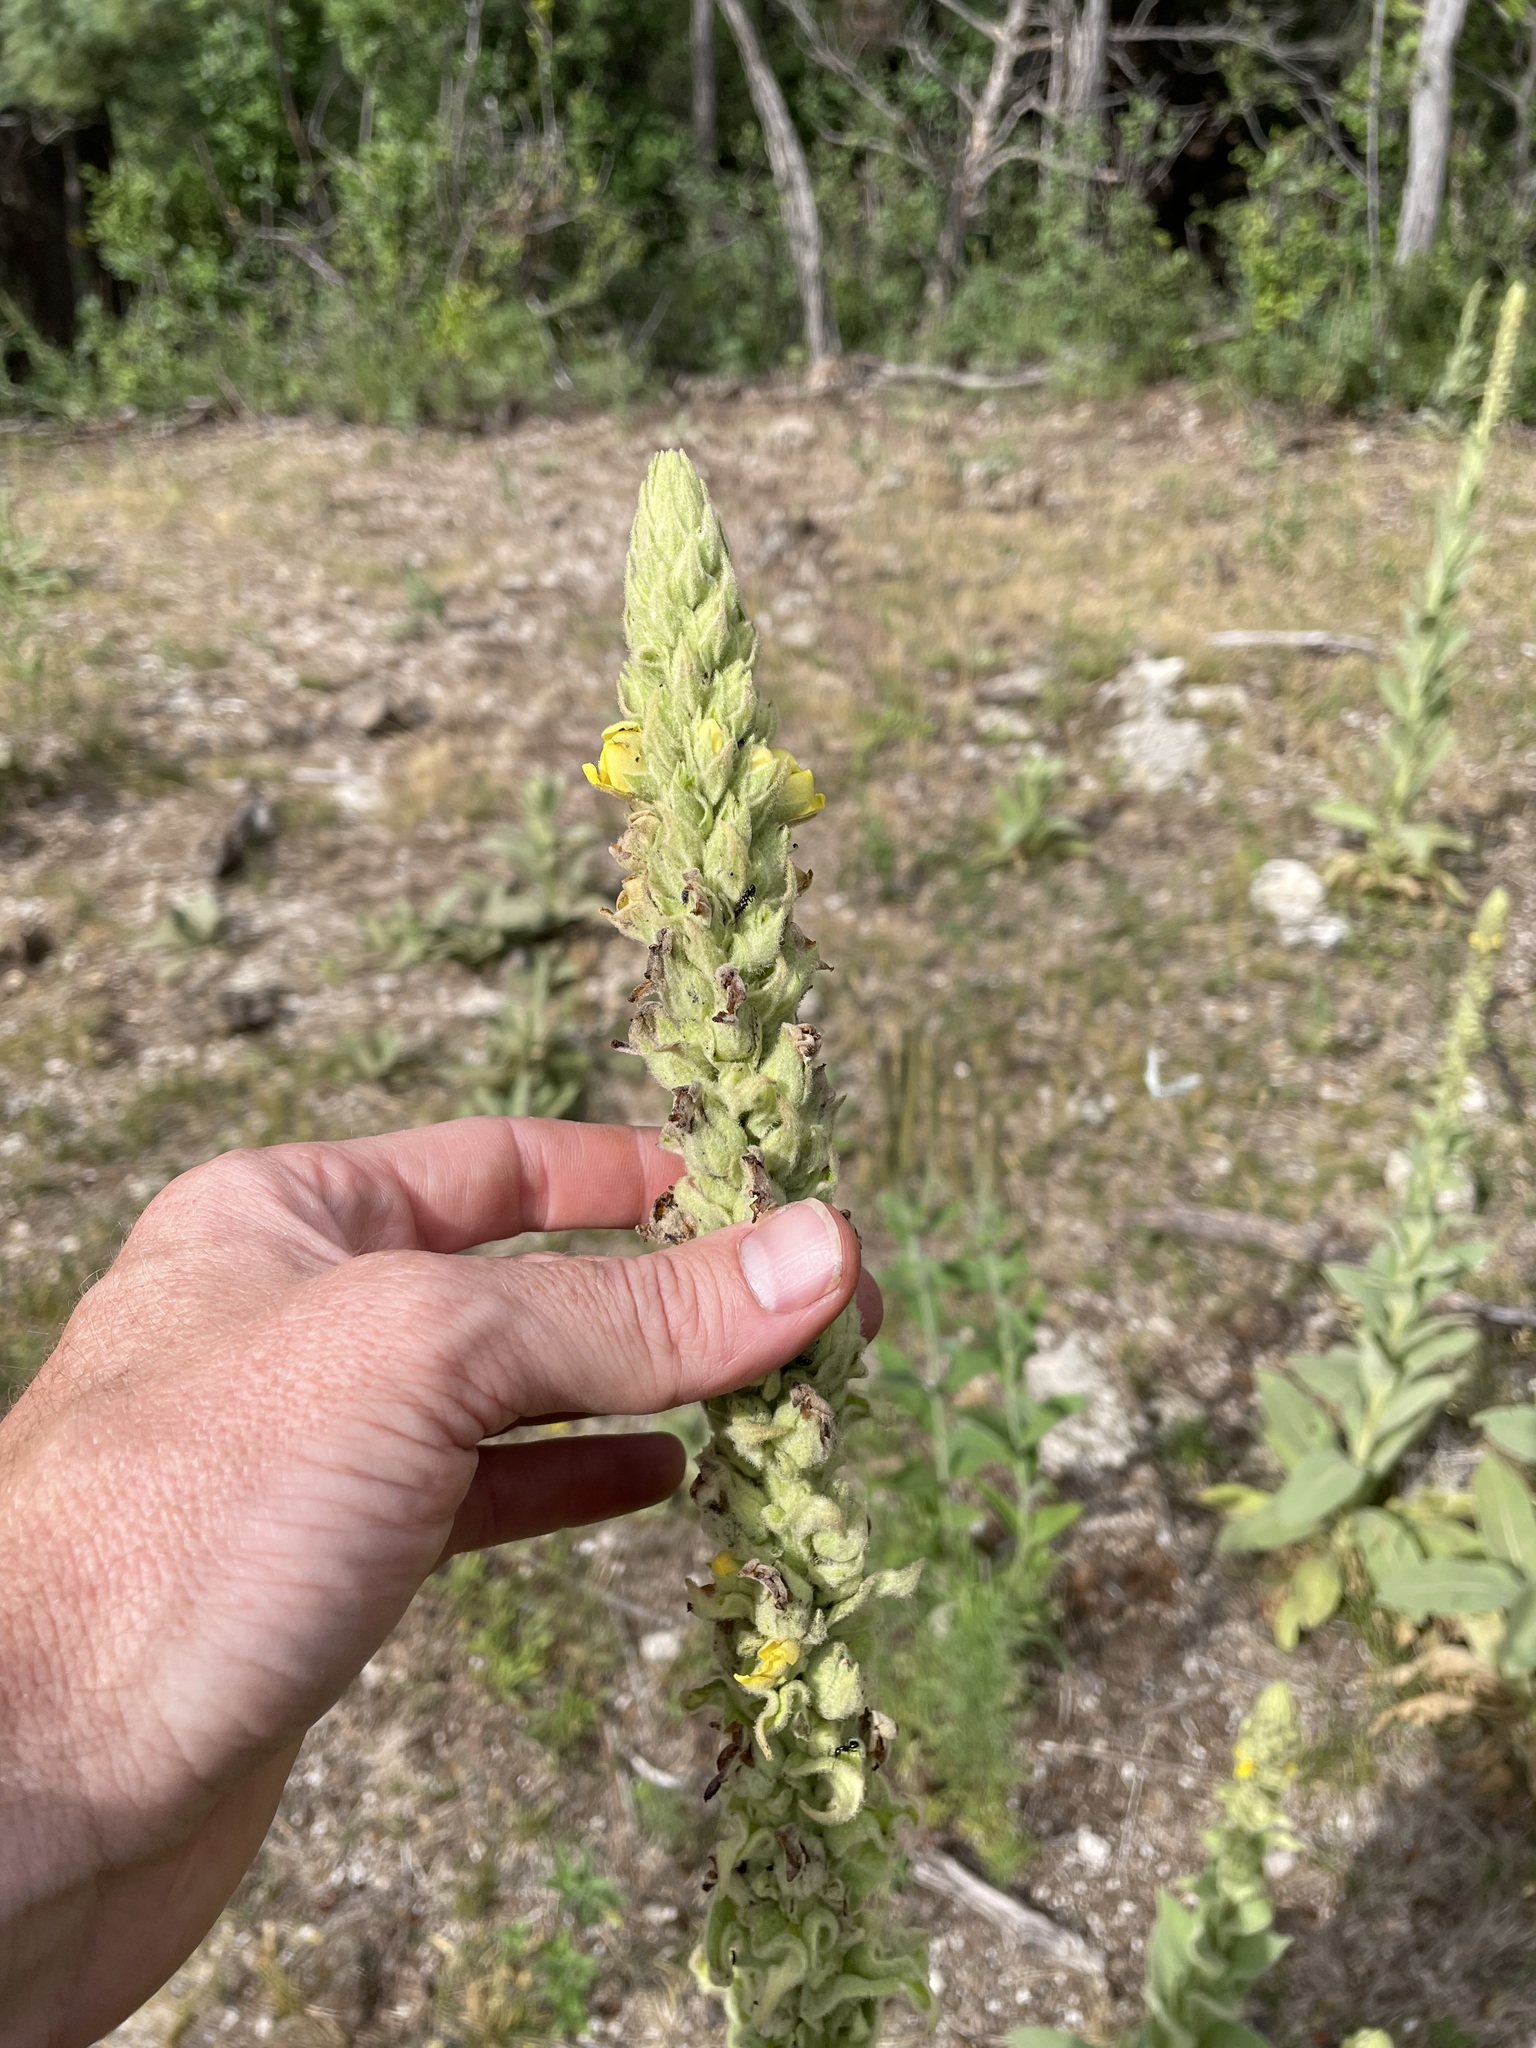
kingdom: Plantae
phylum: Tracheophyta
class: Magnoliopsida
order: Lamiales
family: Scrophulariaceae
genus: Verbascum
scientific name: Verbascum thapsus
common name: Common mullein
